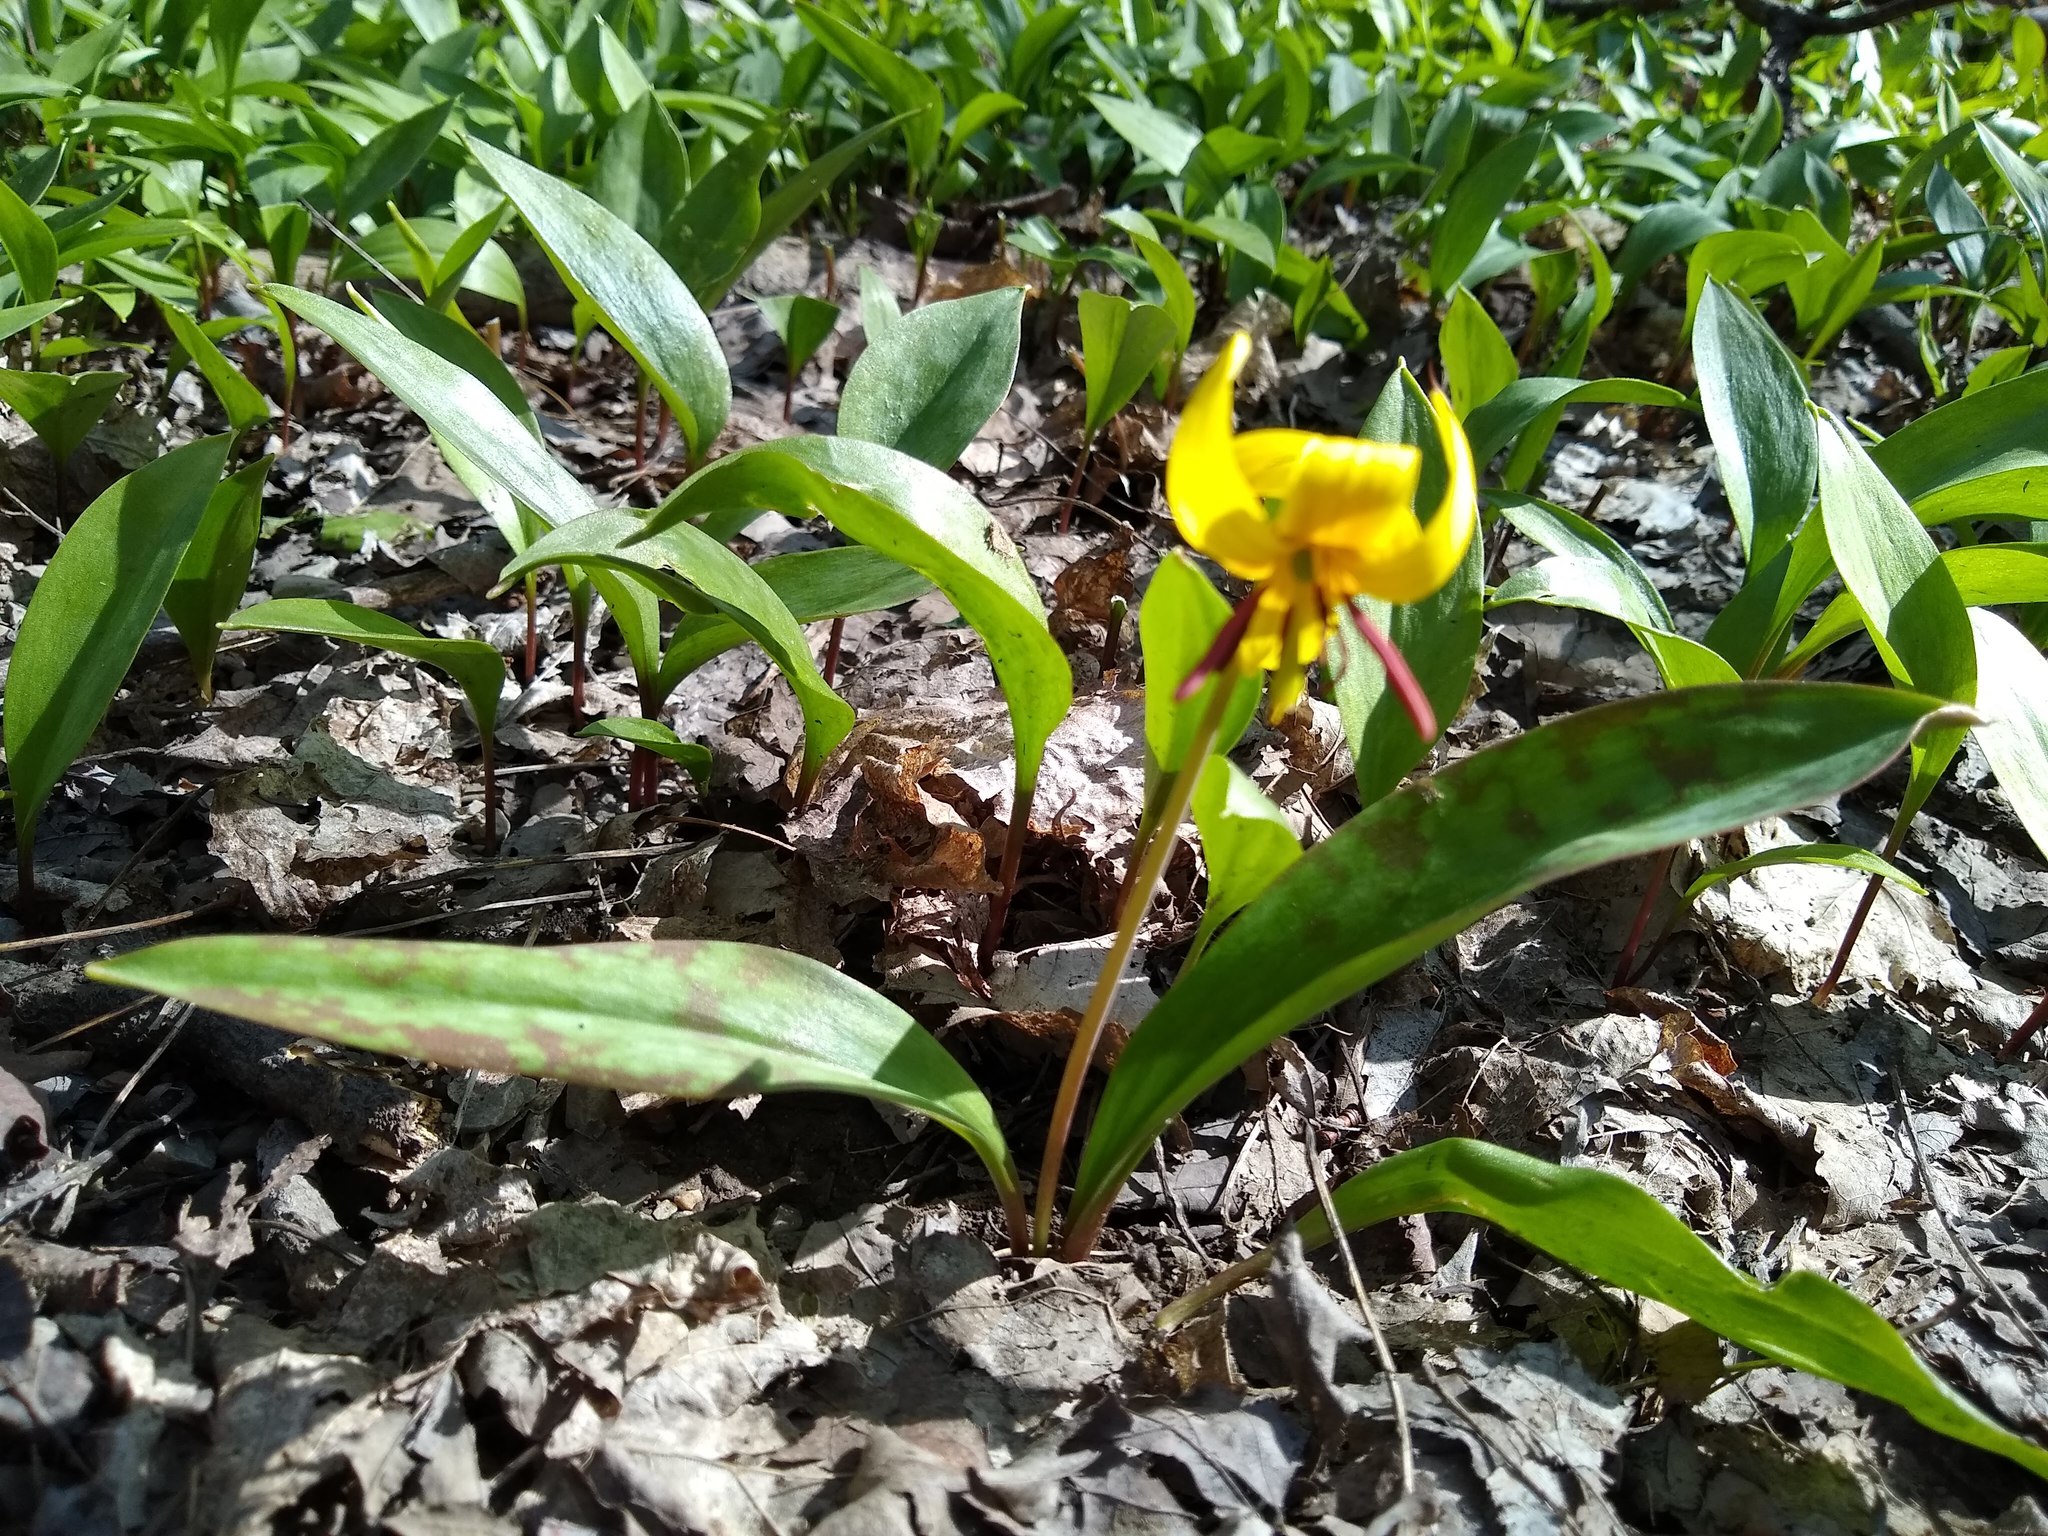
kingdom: Plantae
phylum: Tracheophyta
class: Liliopsida
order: Liliales
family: Liliaceae
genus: Erythronium
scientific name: Erythronium americanum
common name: Yellow adder's-tongue
